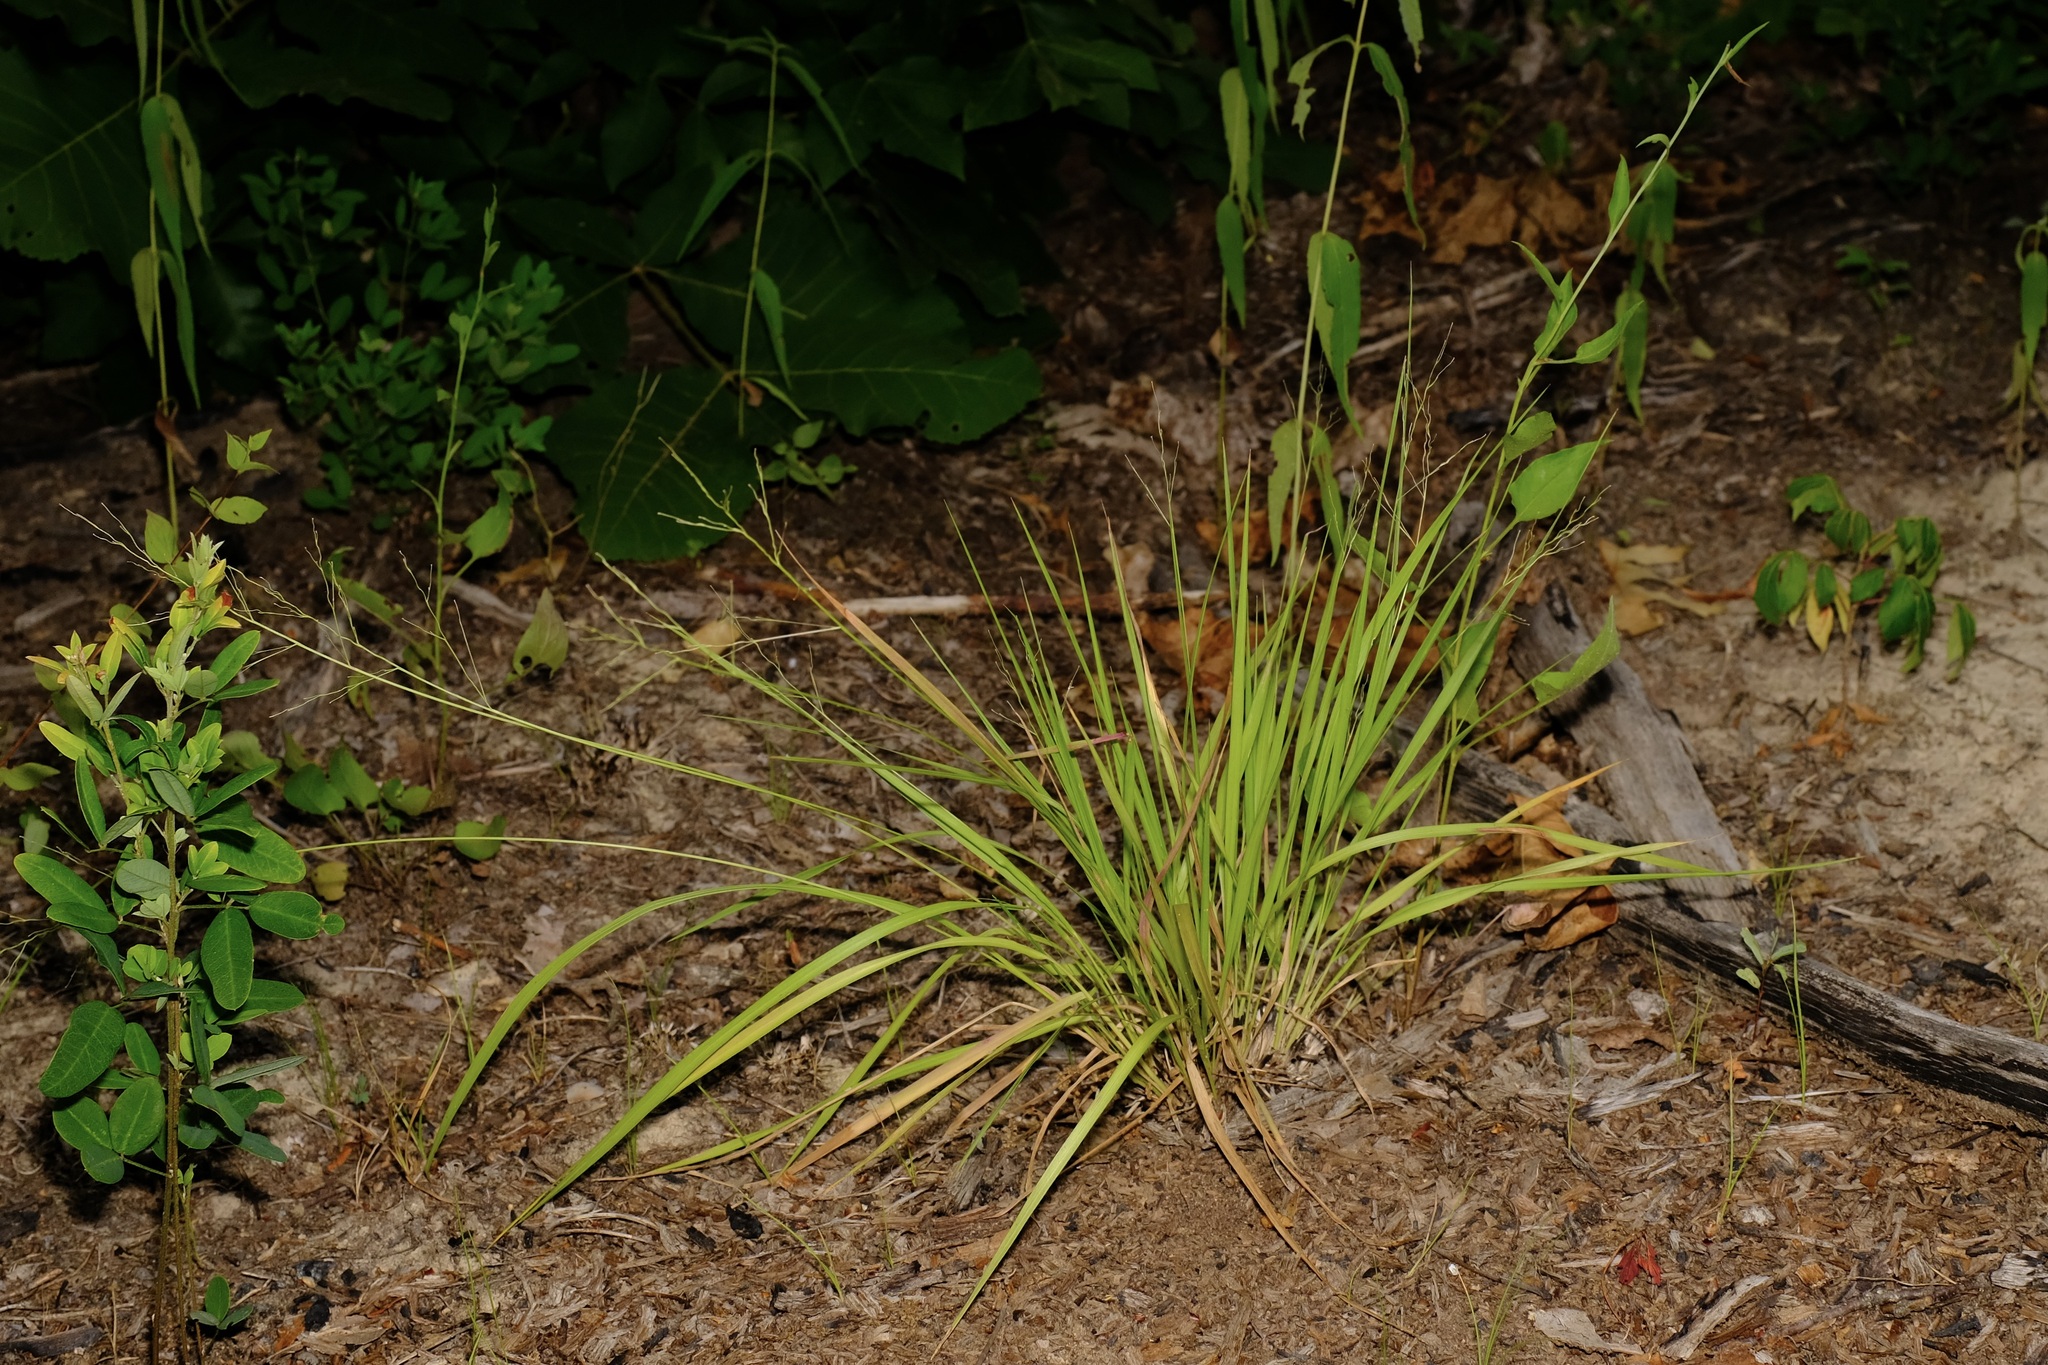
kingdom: Plantae
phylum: Tracheophyta
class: Liliopsida
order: Poales
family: Poaceae
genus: Dichanthelium
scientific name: Dichanthelium linearifolium
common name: Linear-leaved panicgrass
